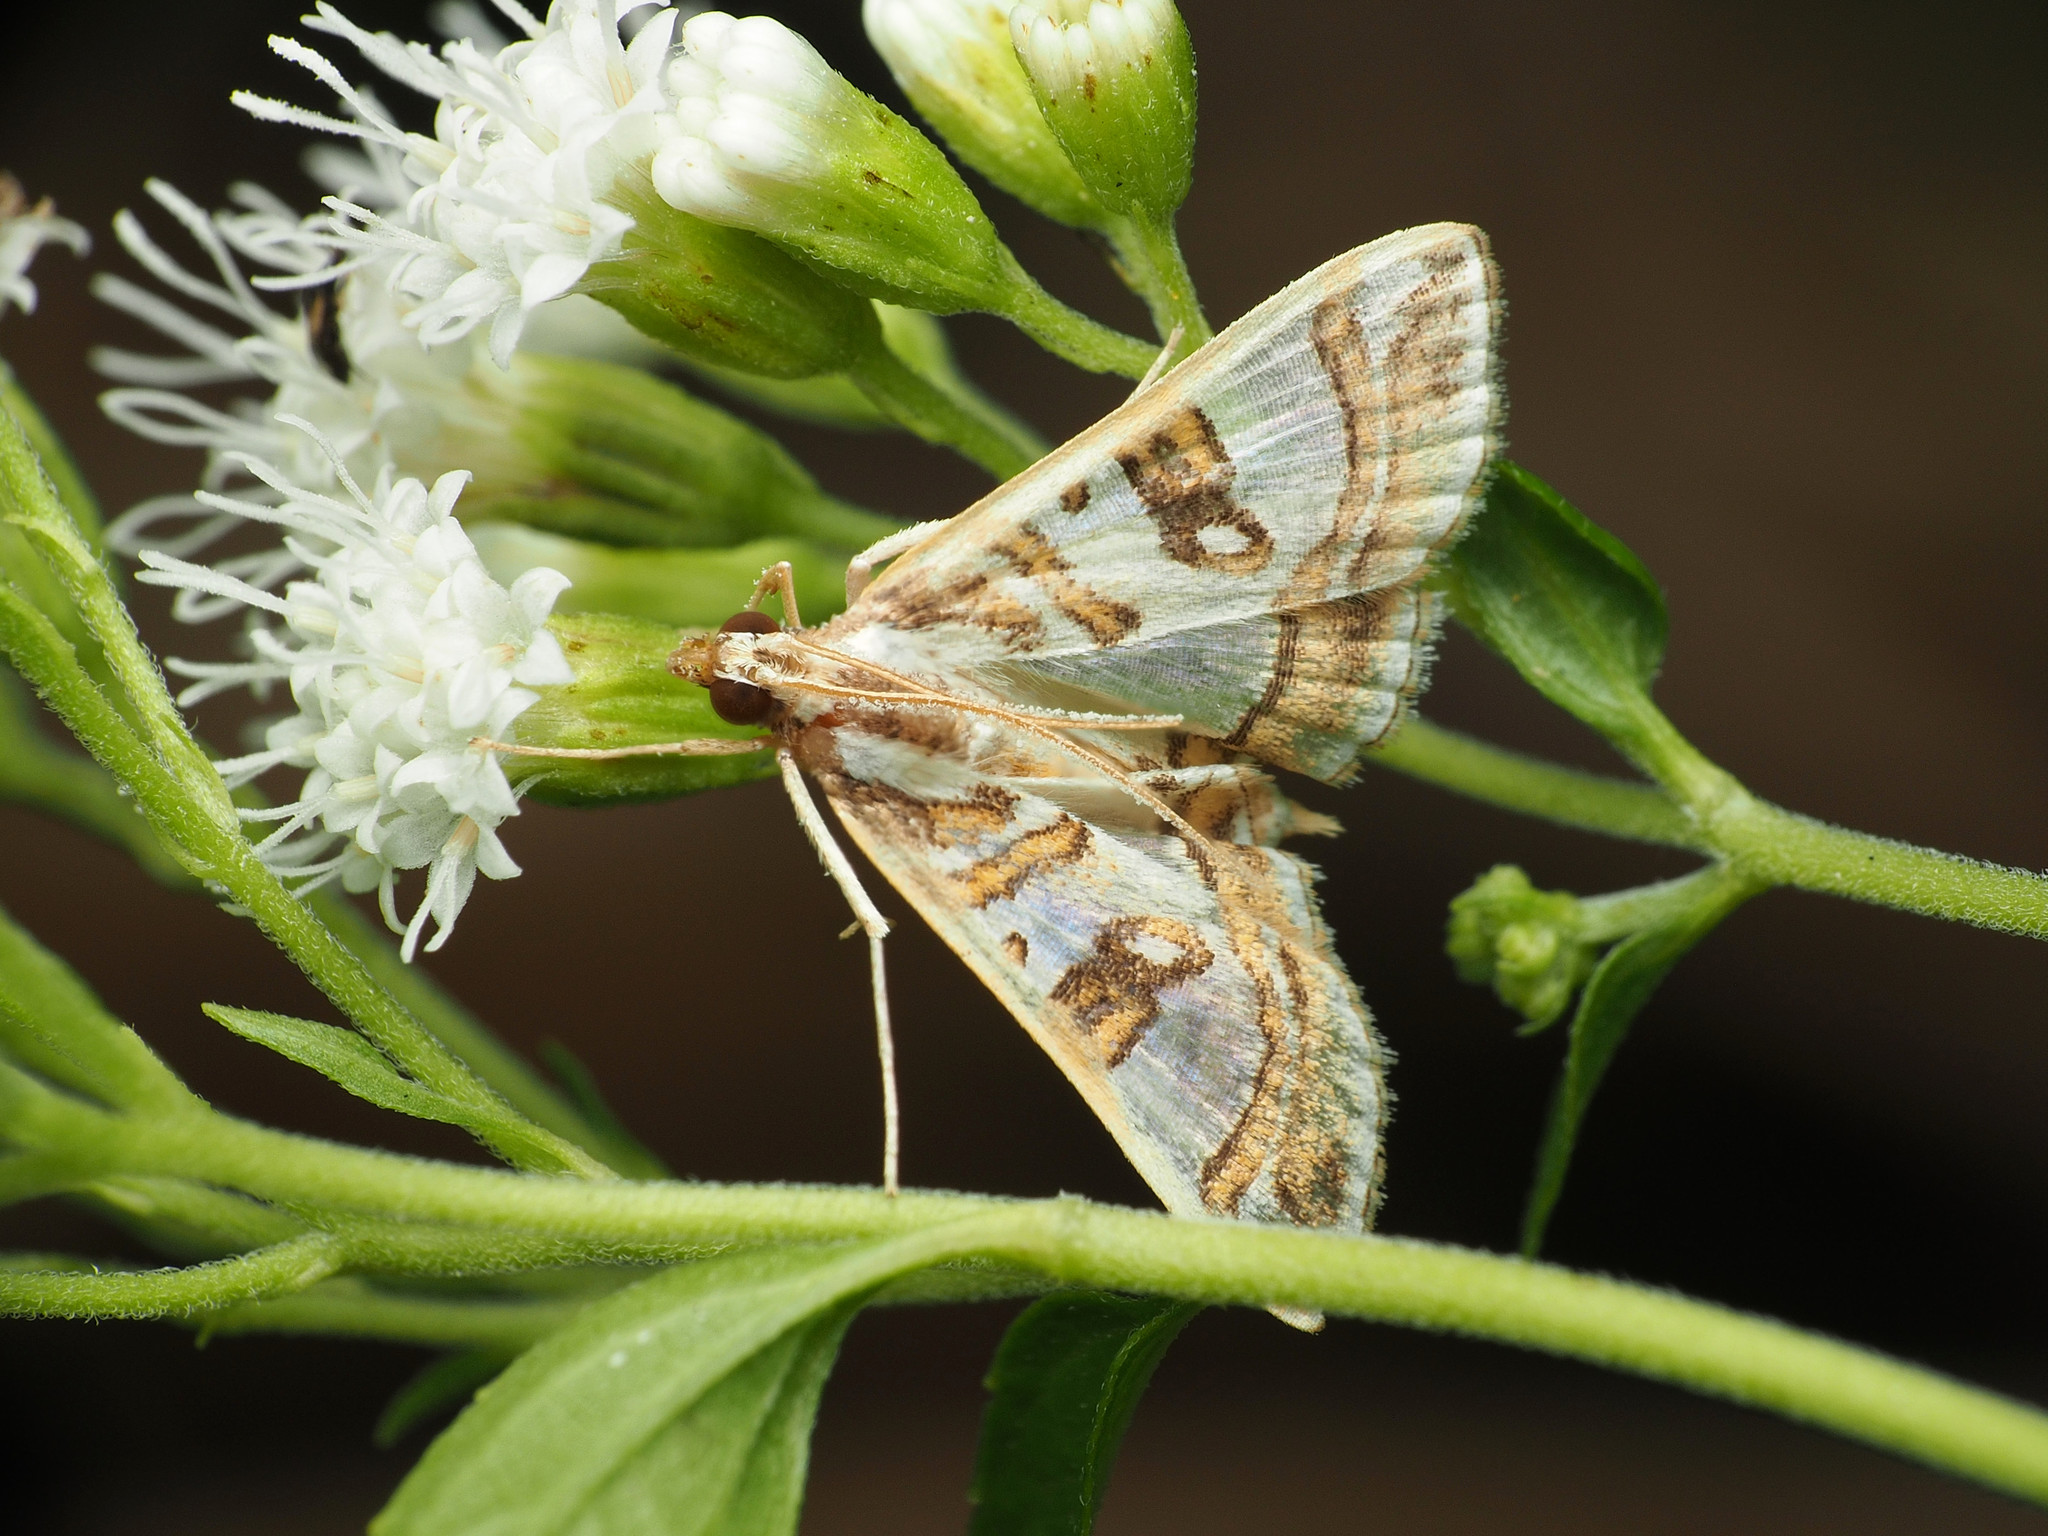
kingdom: Animalia
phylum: Arthropoda
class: Insecta
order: Lepidoptera
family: Crambidae
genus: Glyphodes
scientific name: Glyphodes pyloalis
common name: Lesser mulberry snout moth
